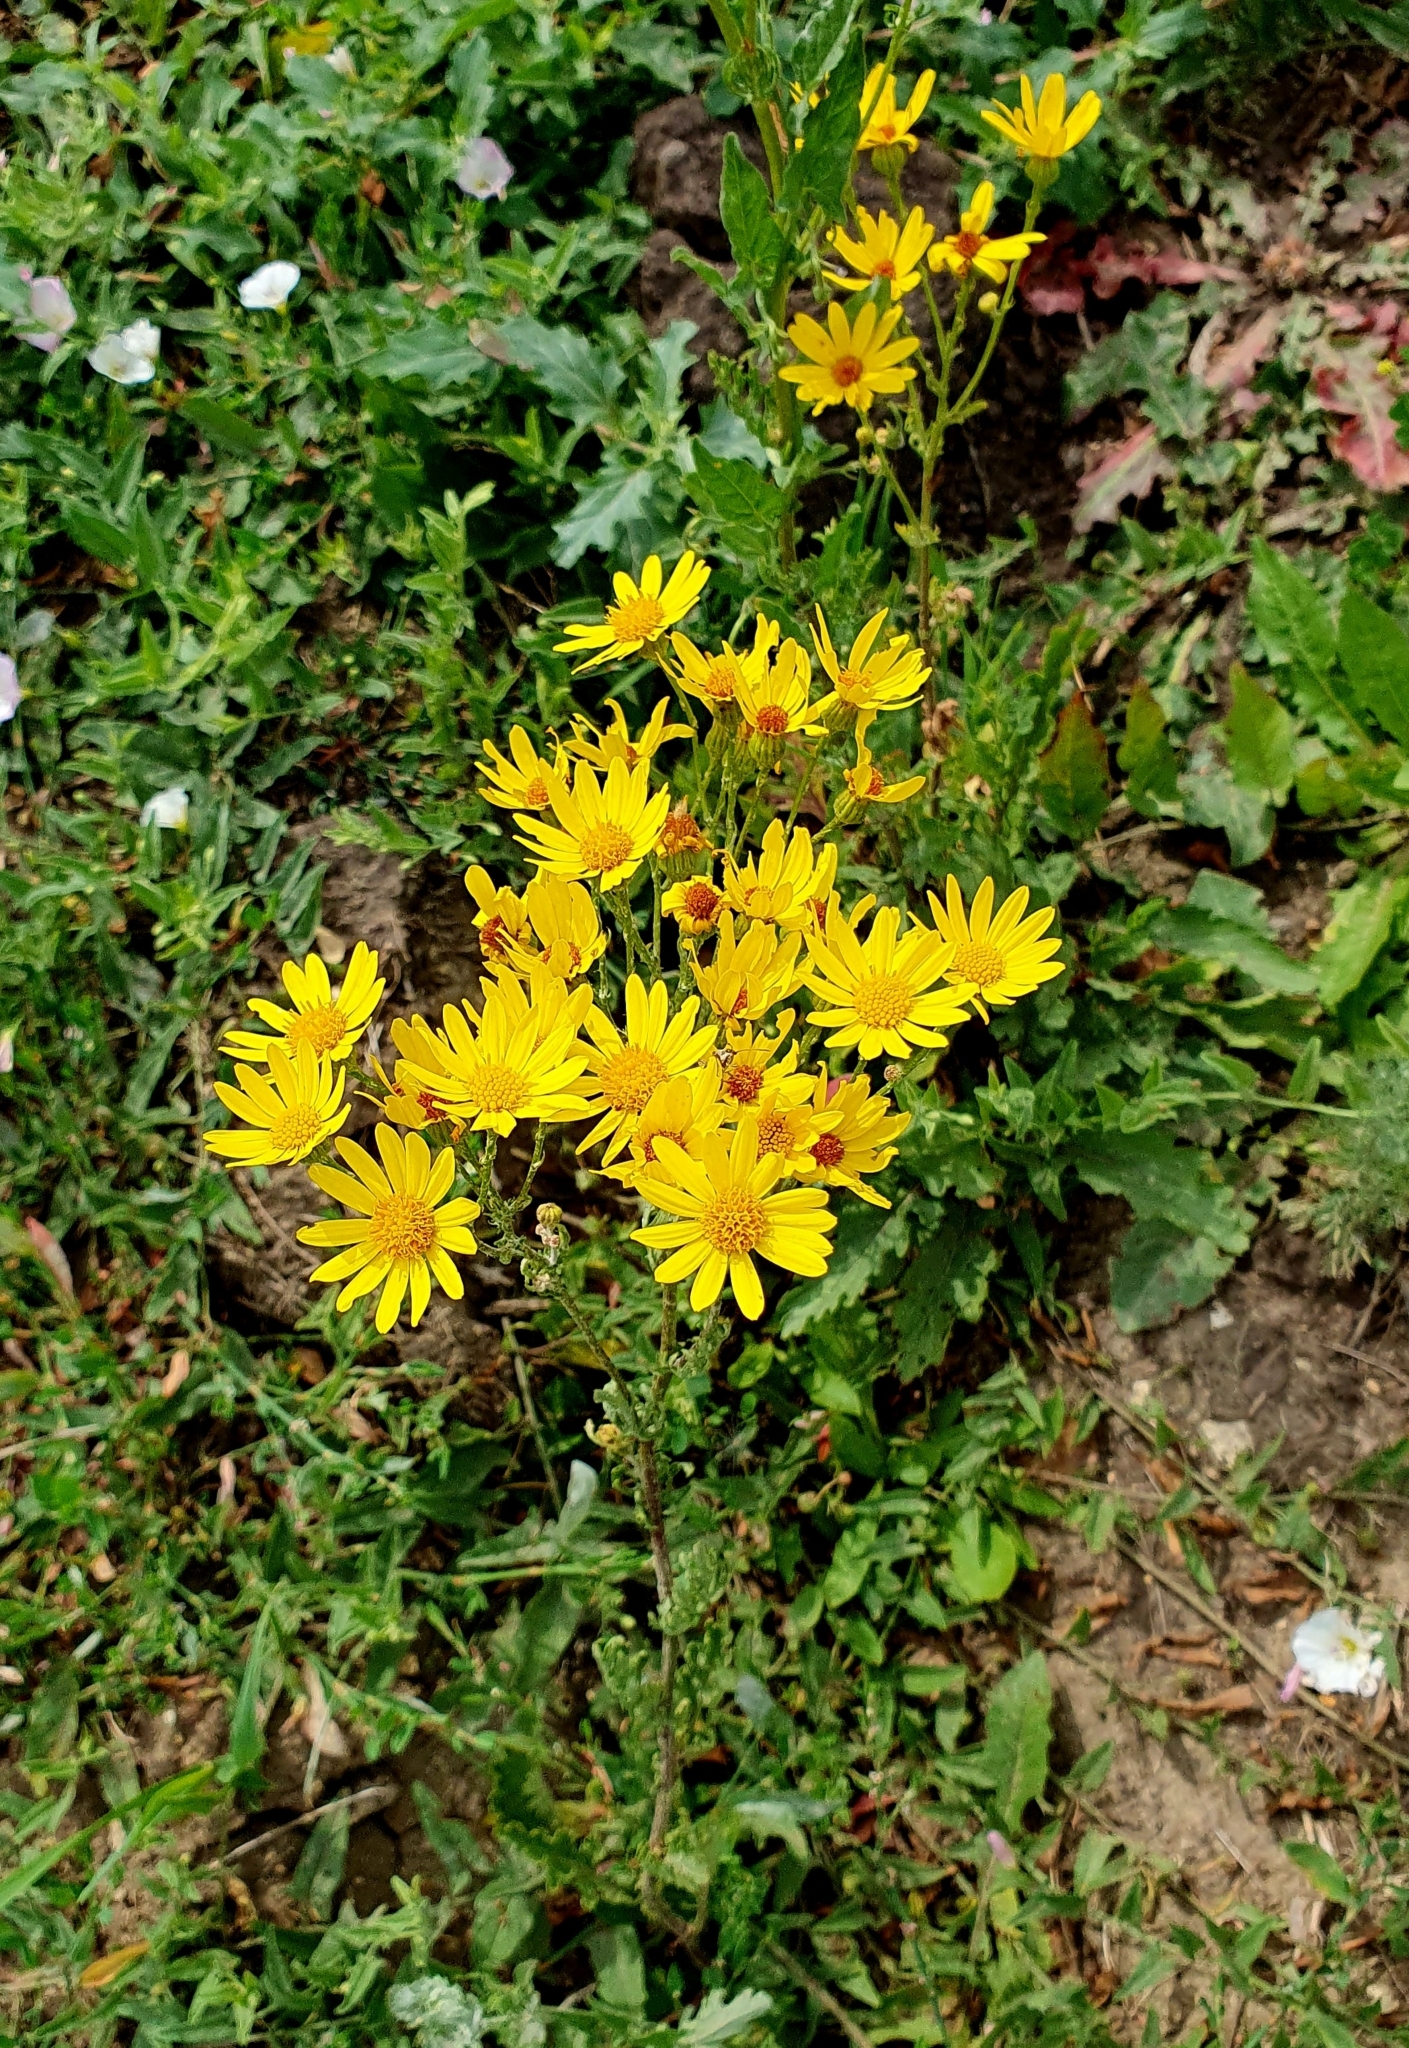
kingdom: Plantae
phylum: Tracheophyta
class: Magnoliopsida
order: Asterales
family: Asteraceae
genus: Jacobaea
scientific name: Jacobaea vulgaris
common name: Stinking willie
